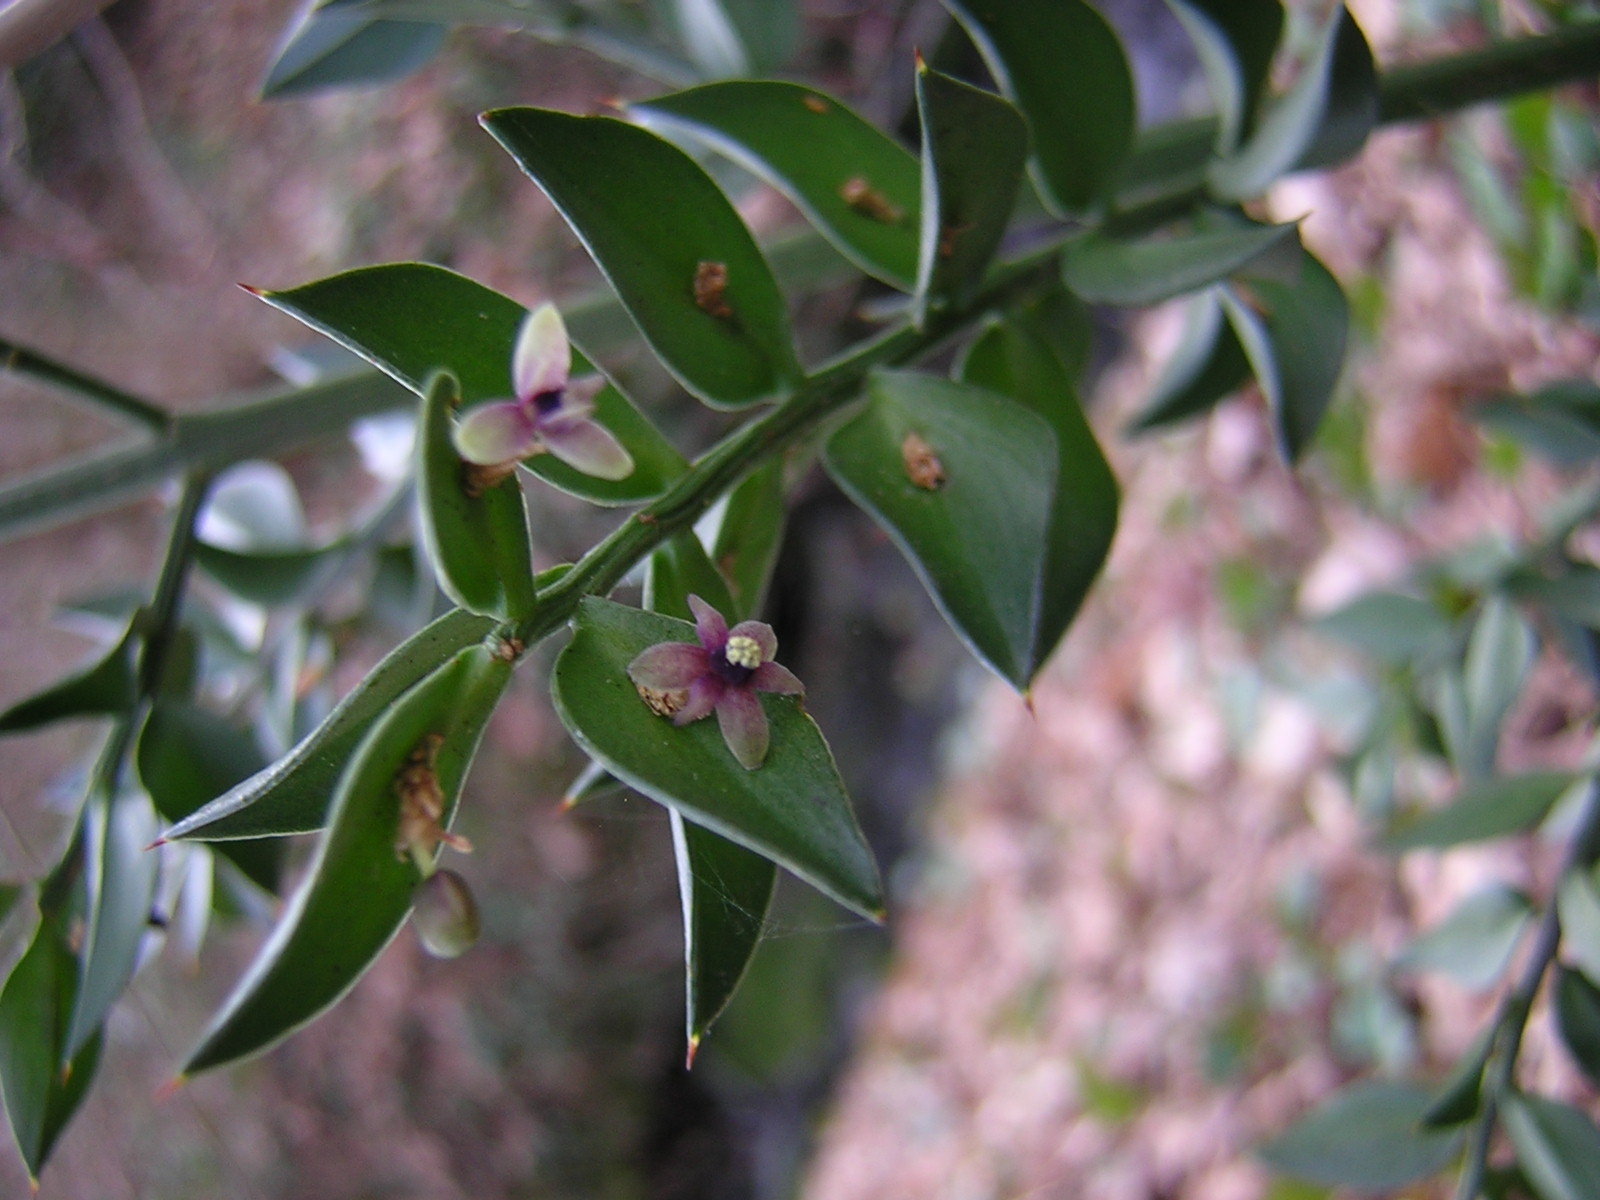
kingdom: Plantae
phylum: Tracheophyta
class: Liliopsida
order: Asparagales
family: Asparagaceae
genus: Ruscus
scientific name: Ruscus aculeatus
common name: Butcher's-broom
